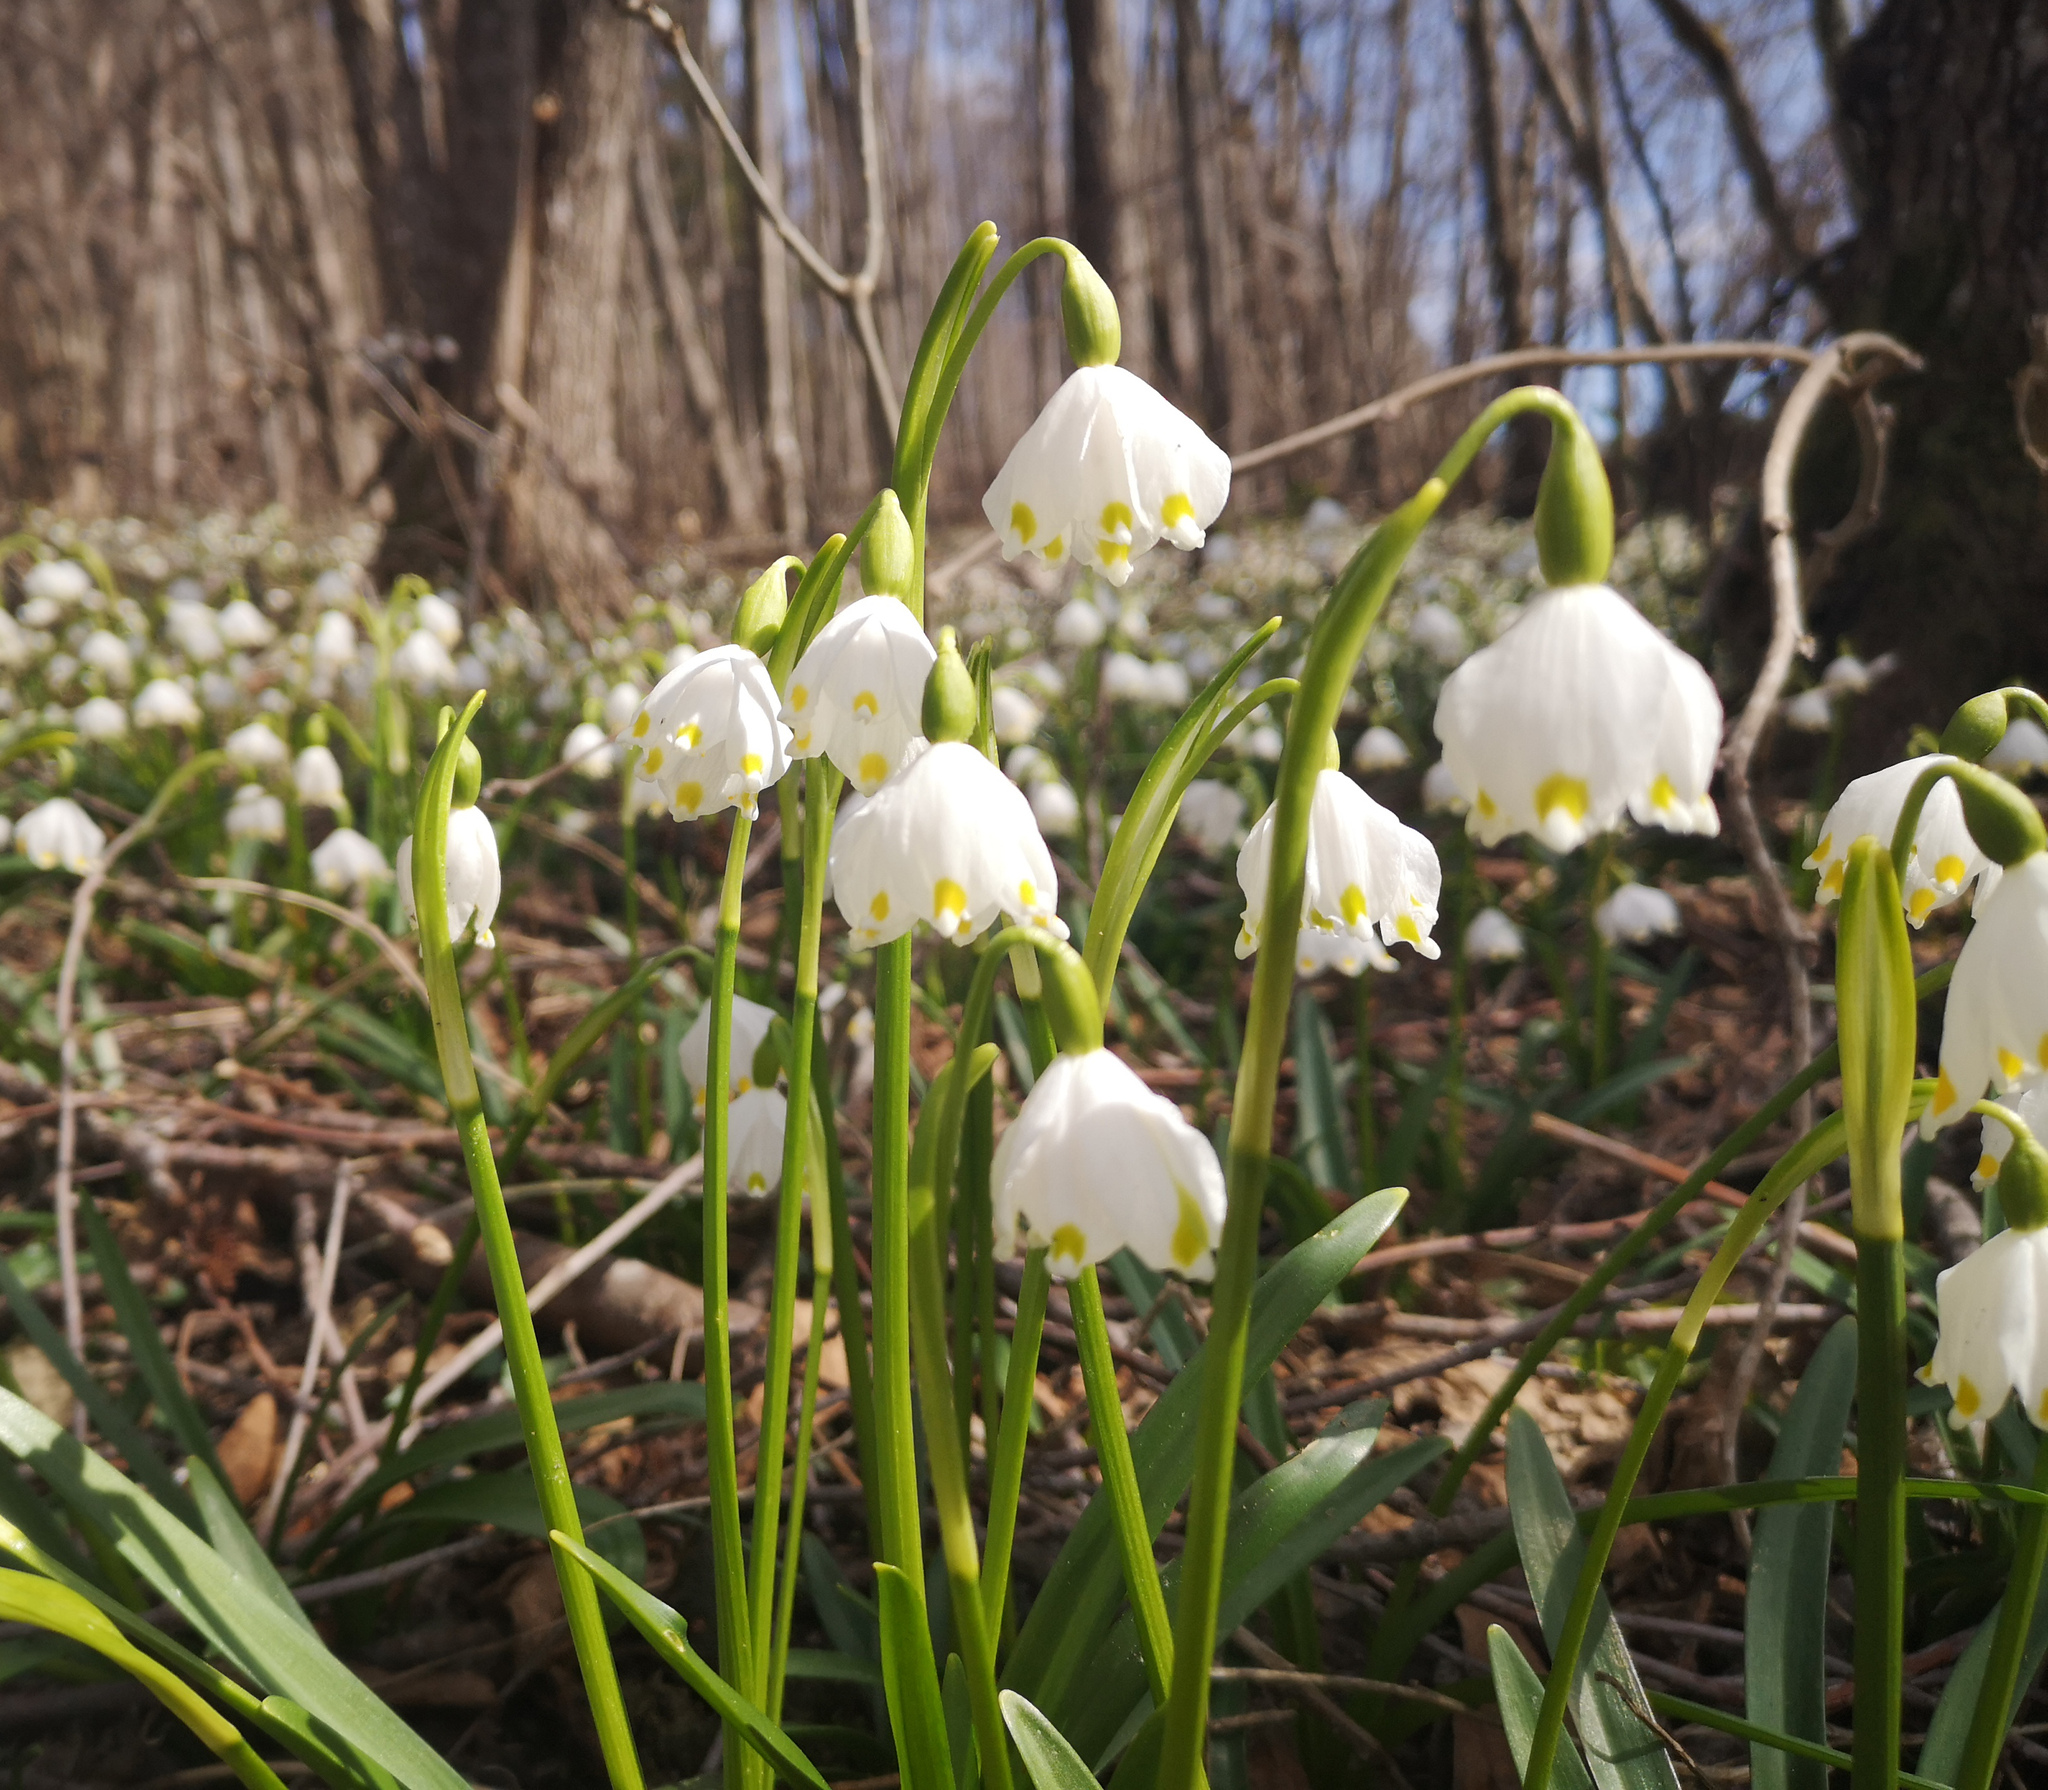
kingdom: Plantae
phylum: Tracheophyta
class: Liliopsida
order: Asparagales
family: Amaryllidaceae
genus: Leucojum
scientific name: Leucojum vernum
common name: Spring snowflake
